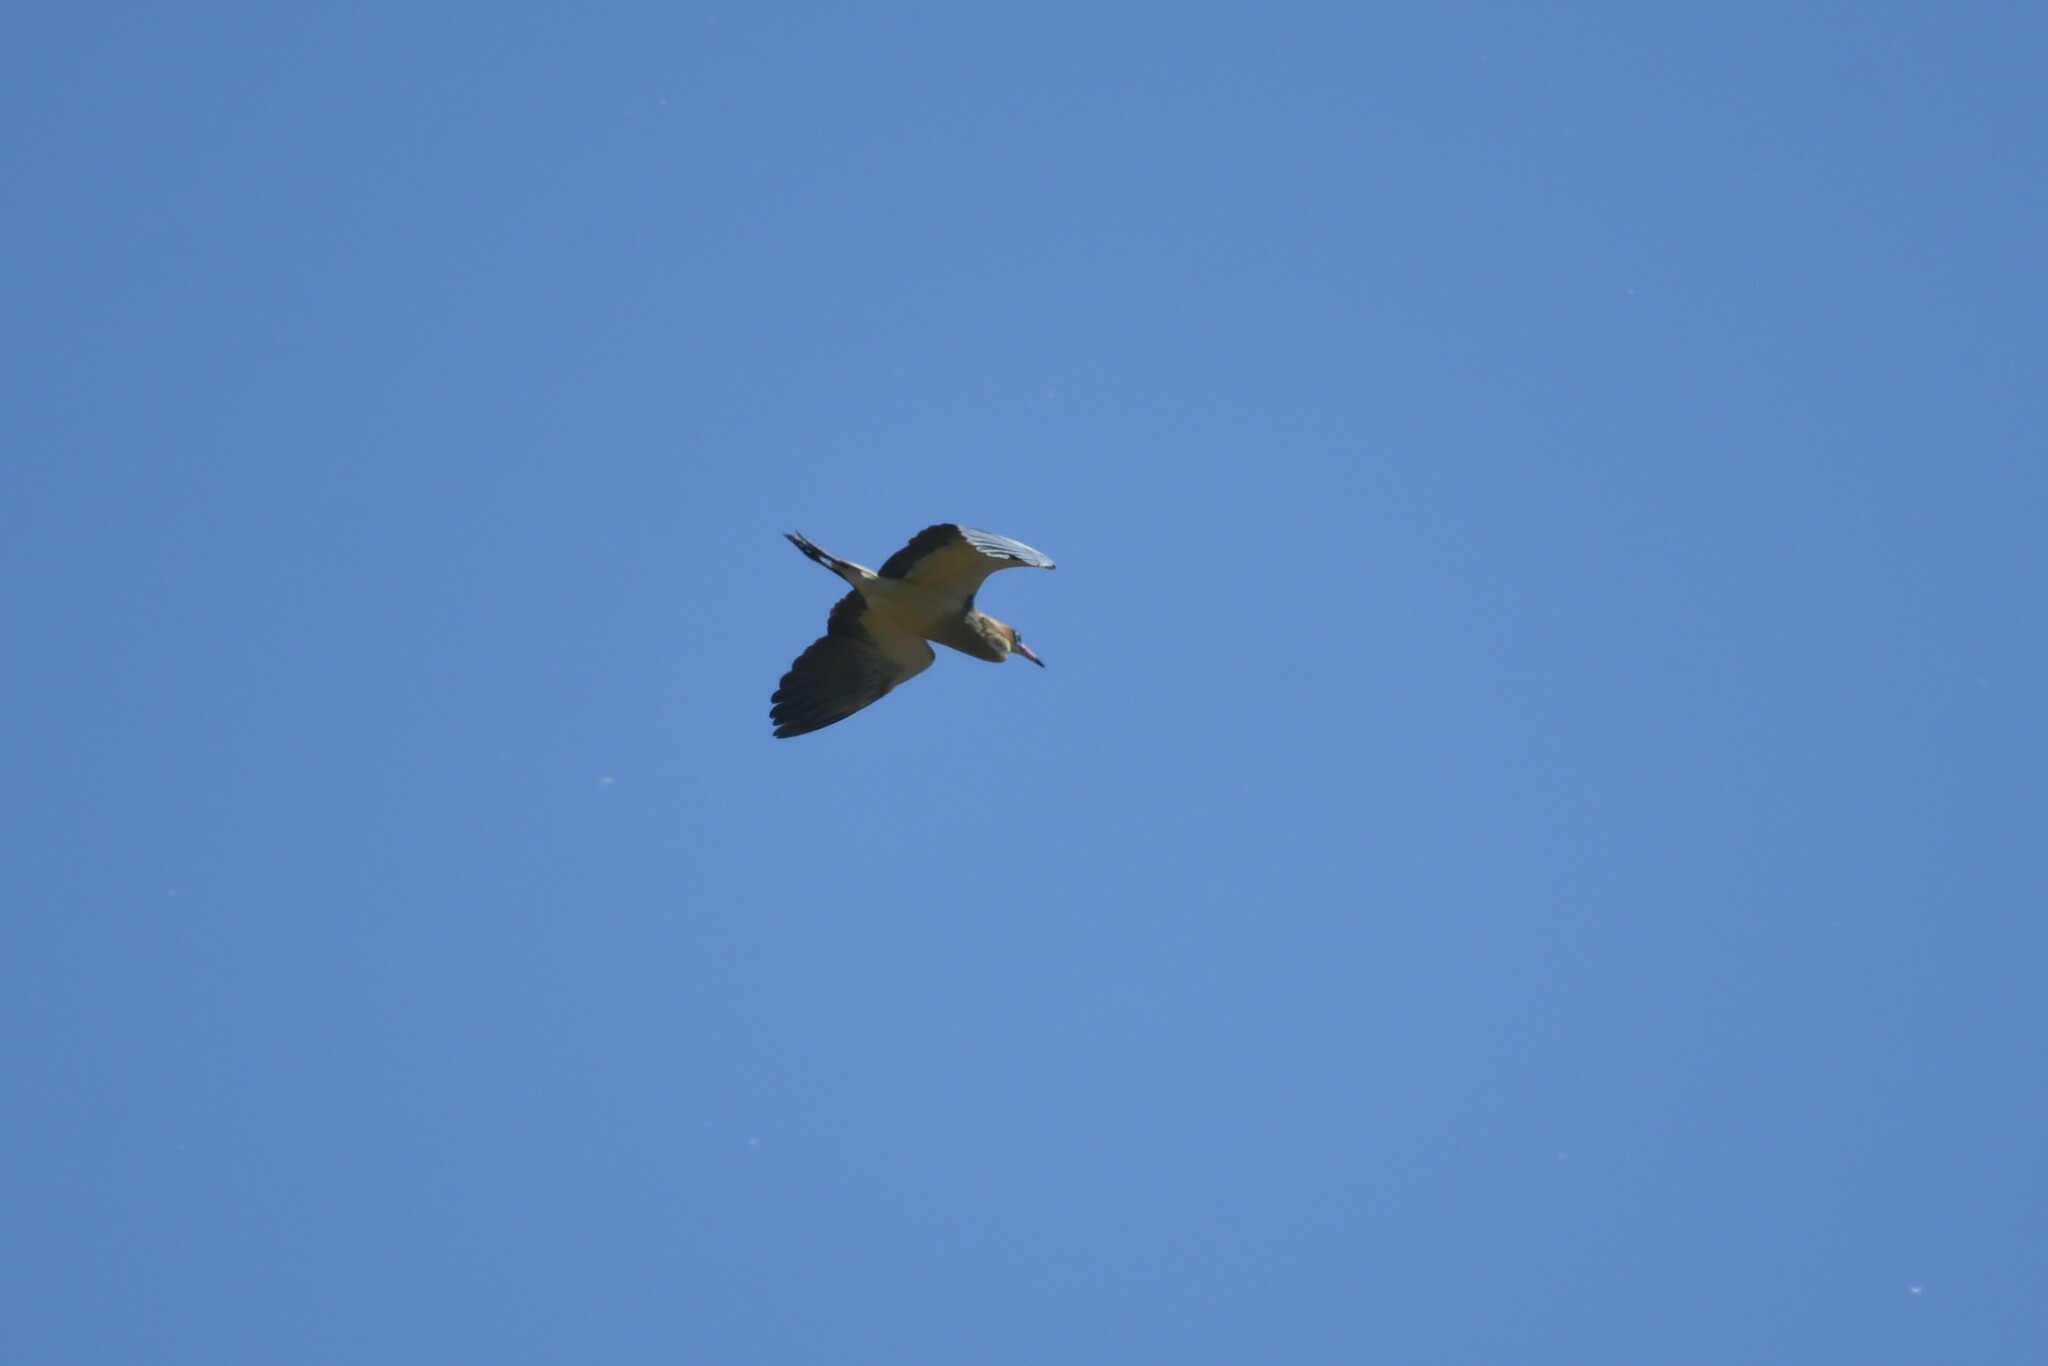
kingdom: Animalia
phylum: Chordata
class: Aves
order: Pelecaniformes
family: Ardeidae
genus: Syrigma
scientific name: Syrigma sibilatrix
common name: Whistling heron
